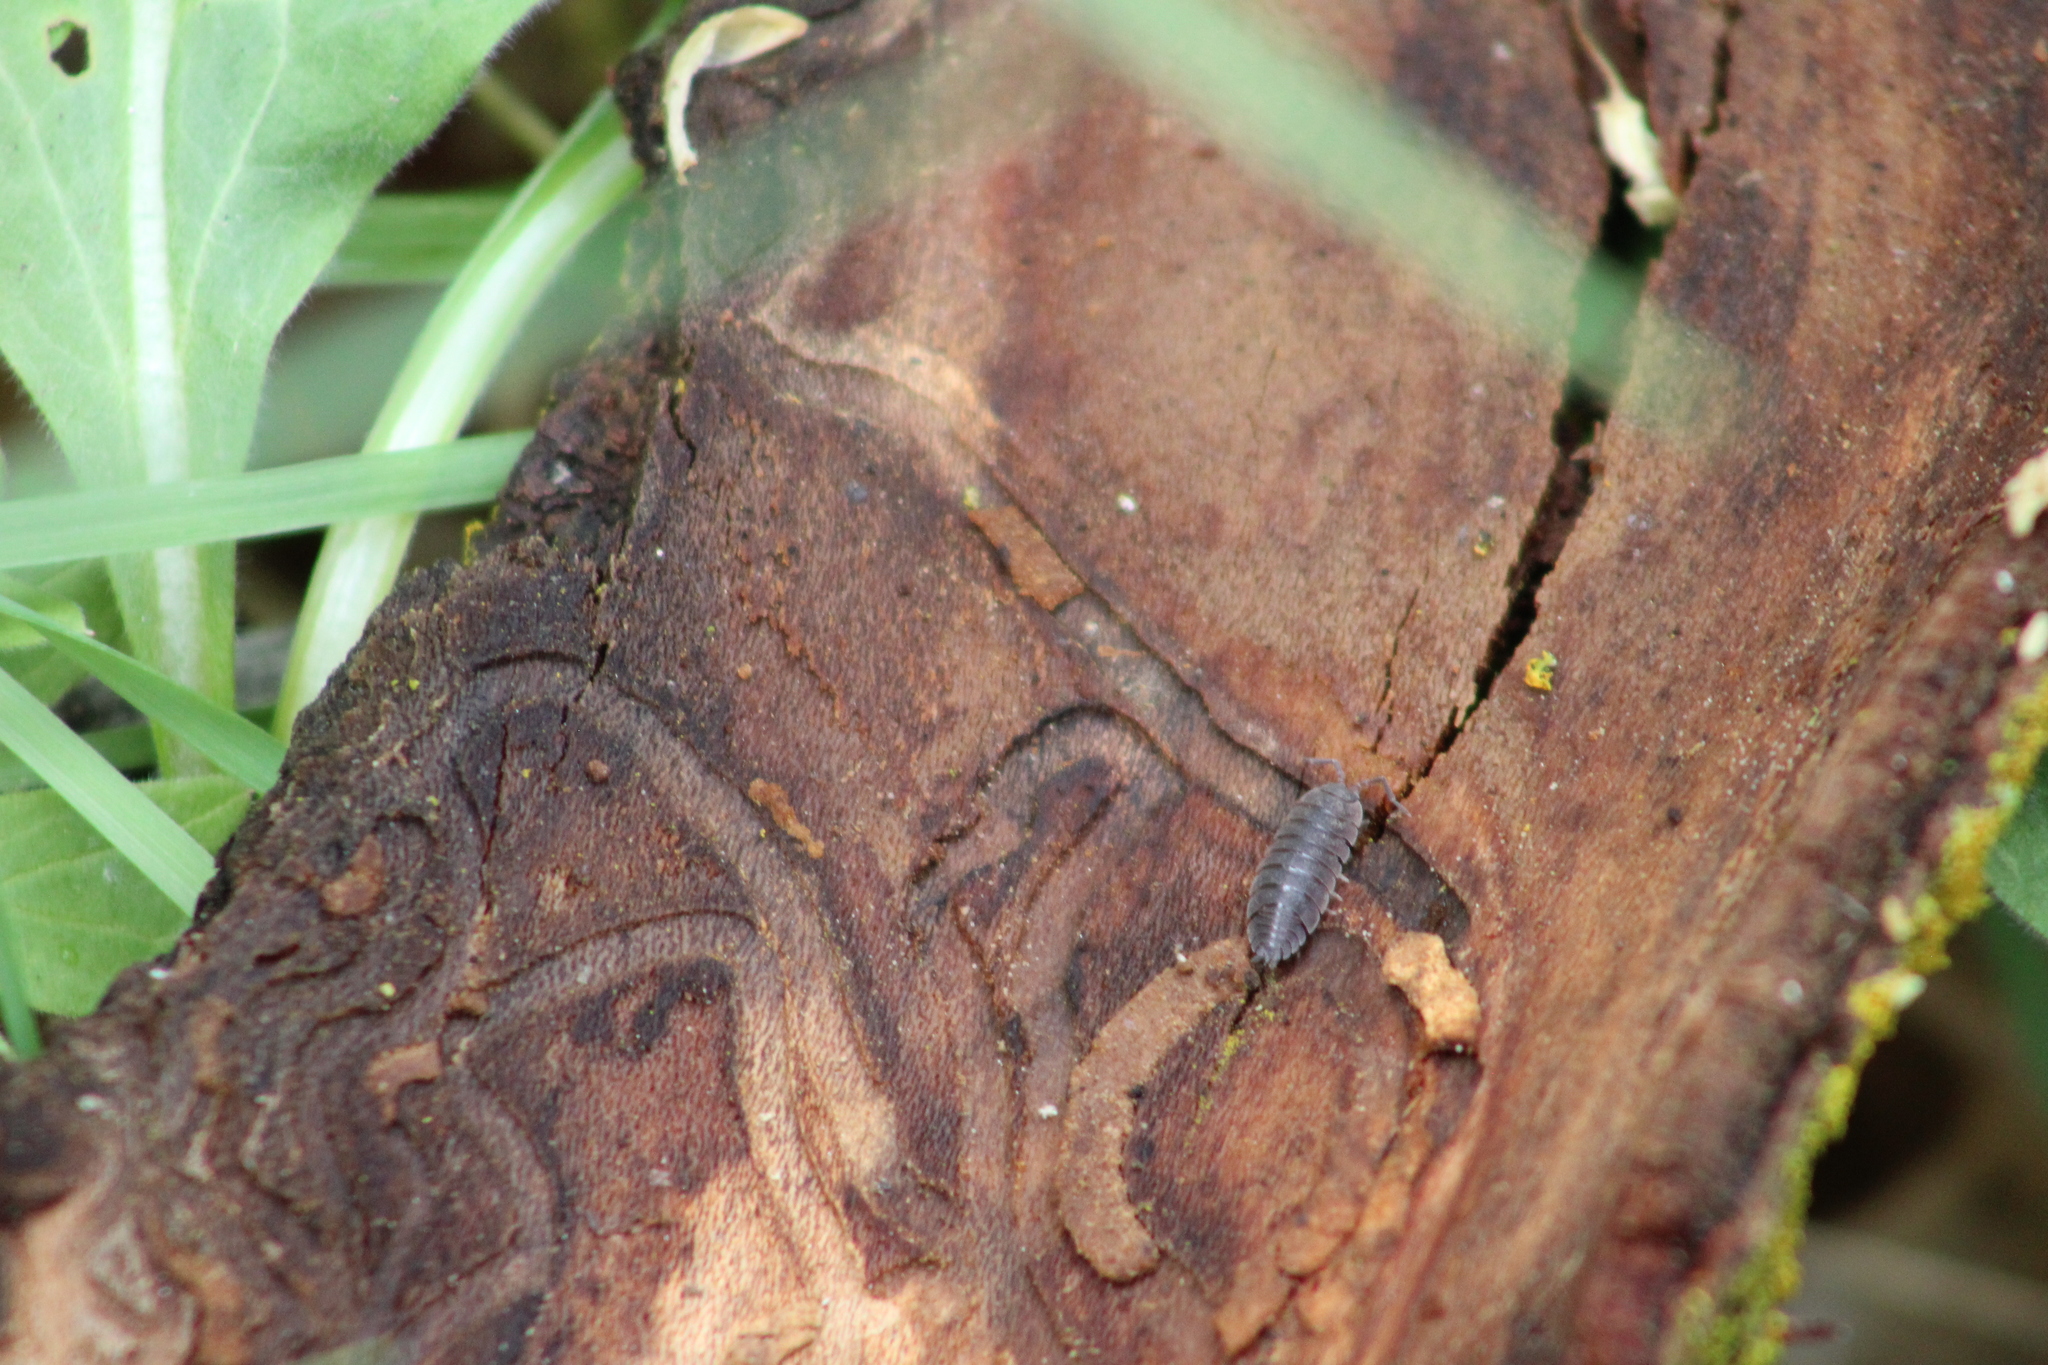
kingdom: Animalia
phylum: Arthropoda
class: Malacostraca
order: Isopoda
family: Porcellionidae
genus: Porcellio
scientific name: Porcellio scaber
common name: Common rough woodlouse
